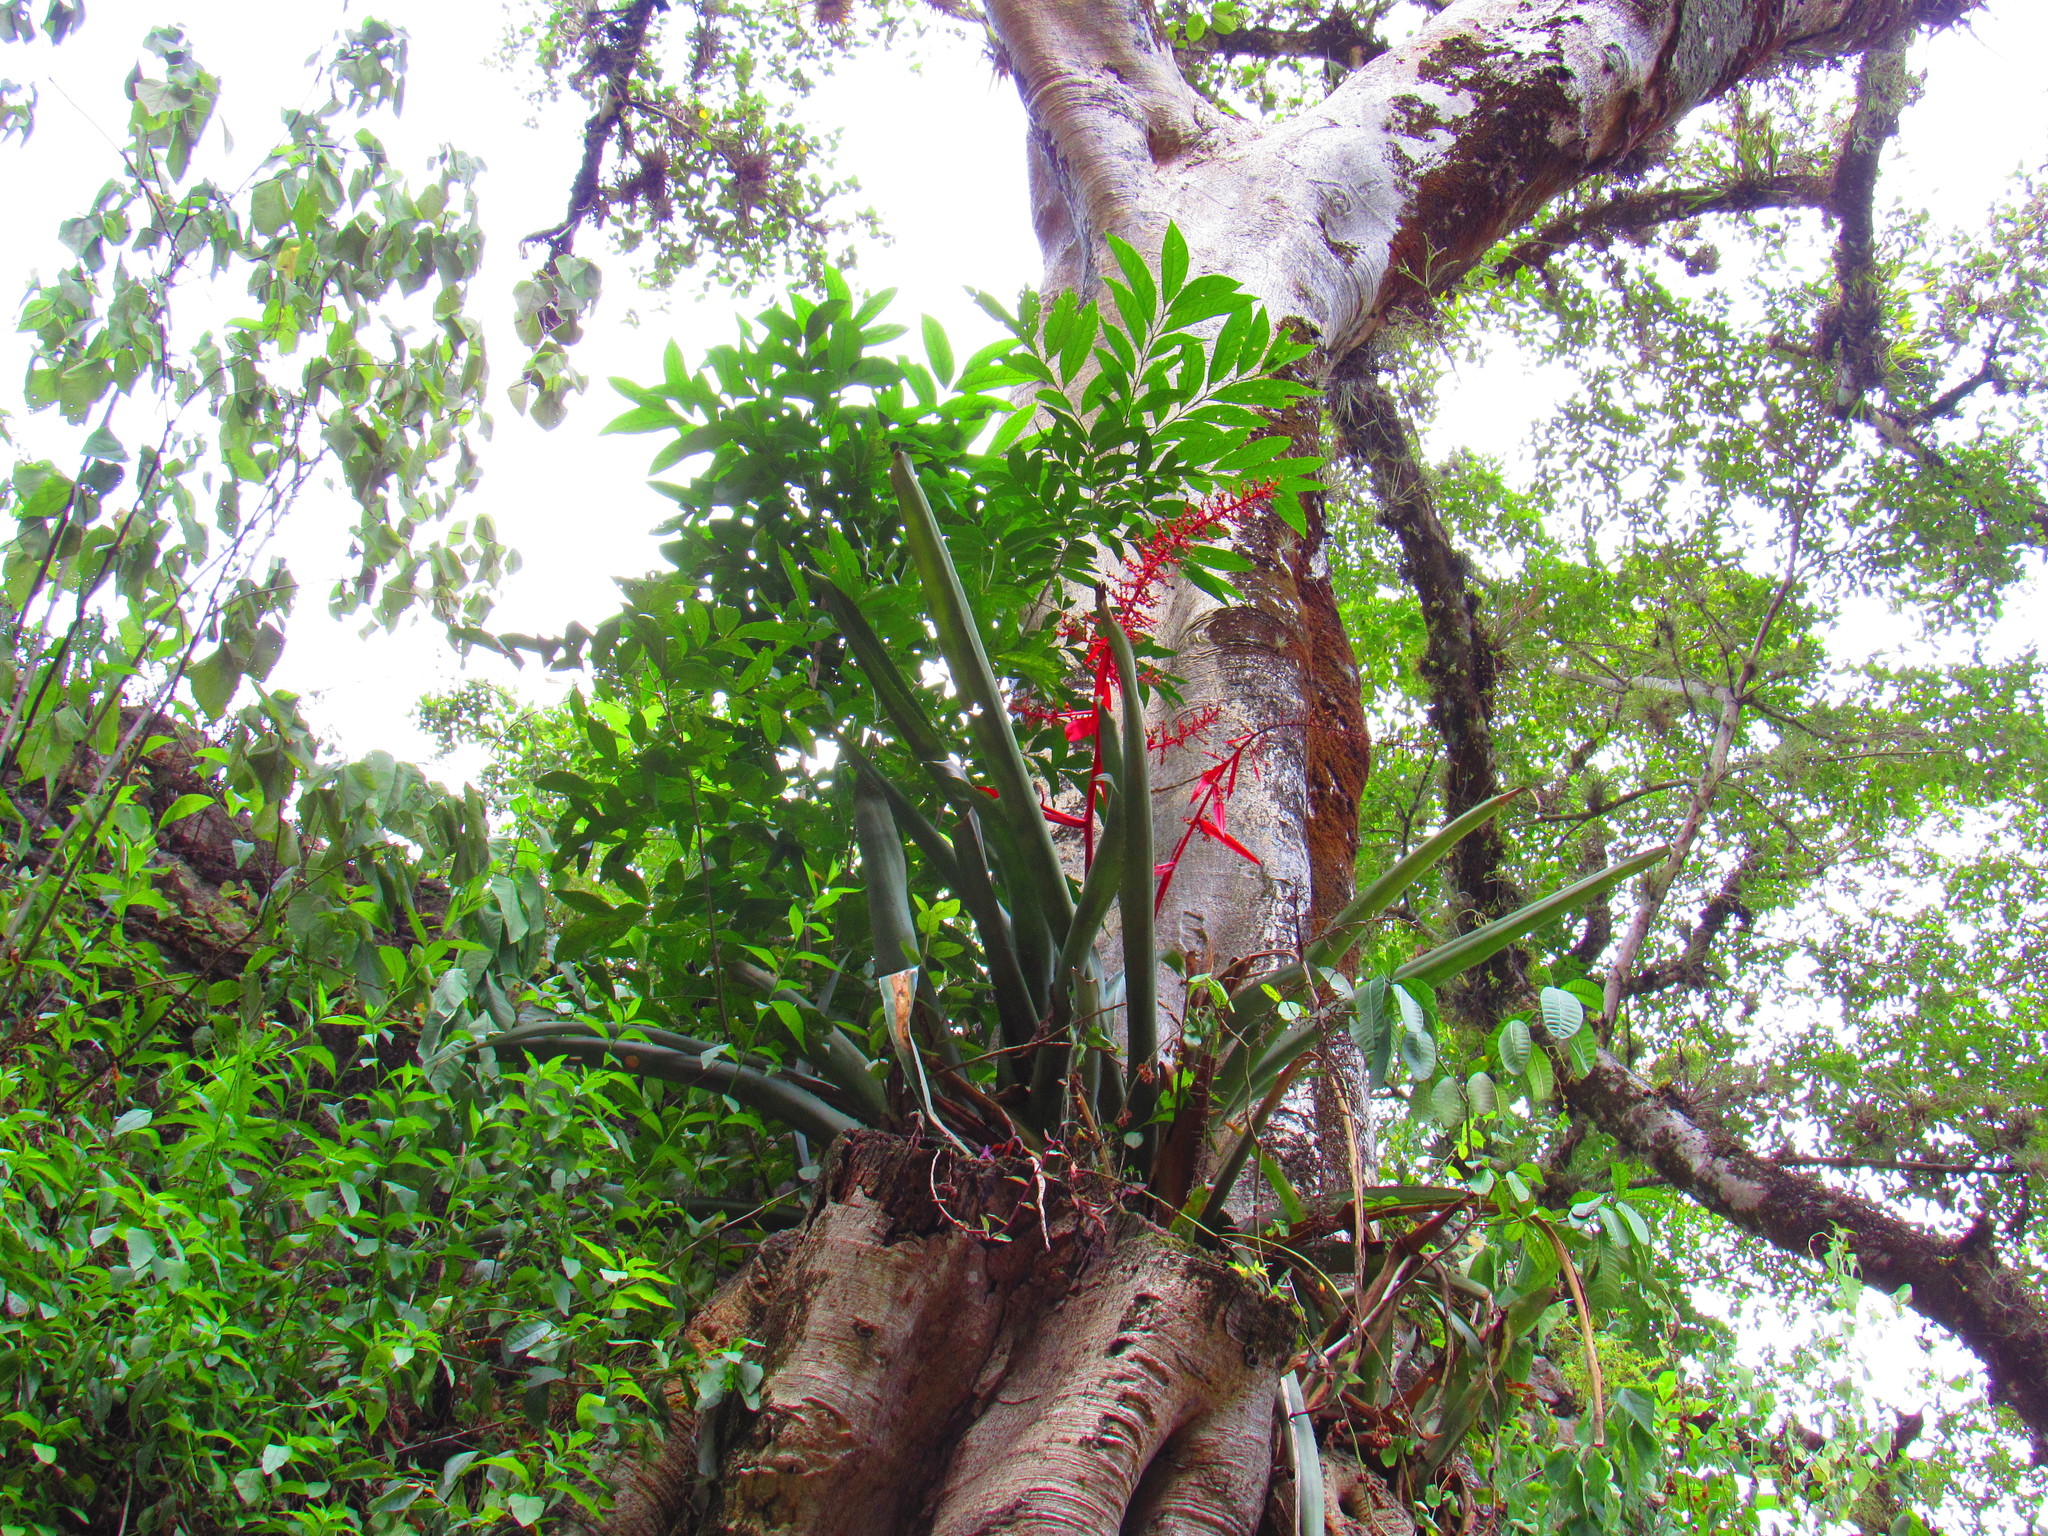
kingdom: Plantae
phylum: Tracheophyta
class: Liliopsida
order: Poales
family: Bromeliaceae
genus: Aechmea
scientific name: Aechmea bracteata
